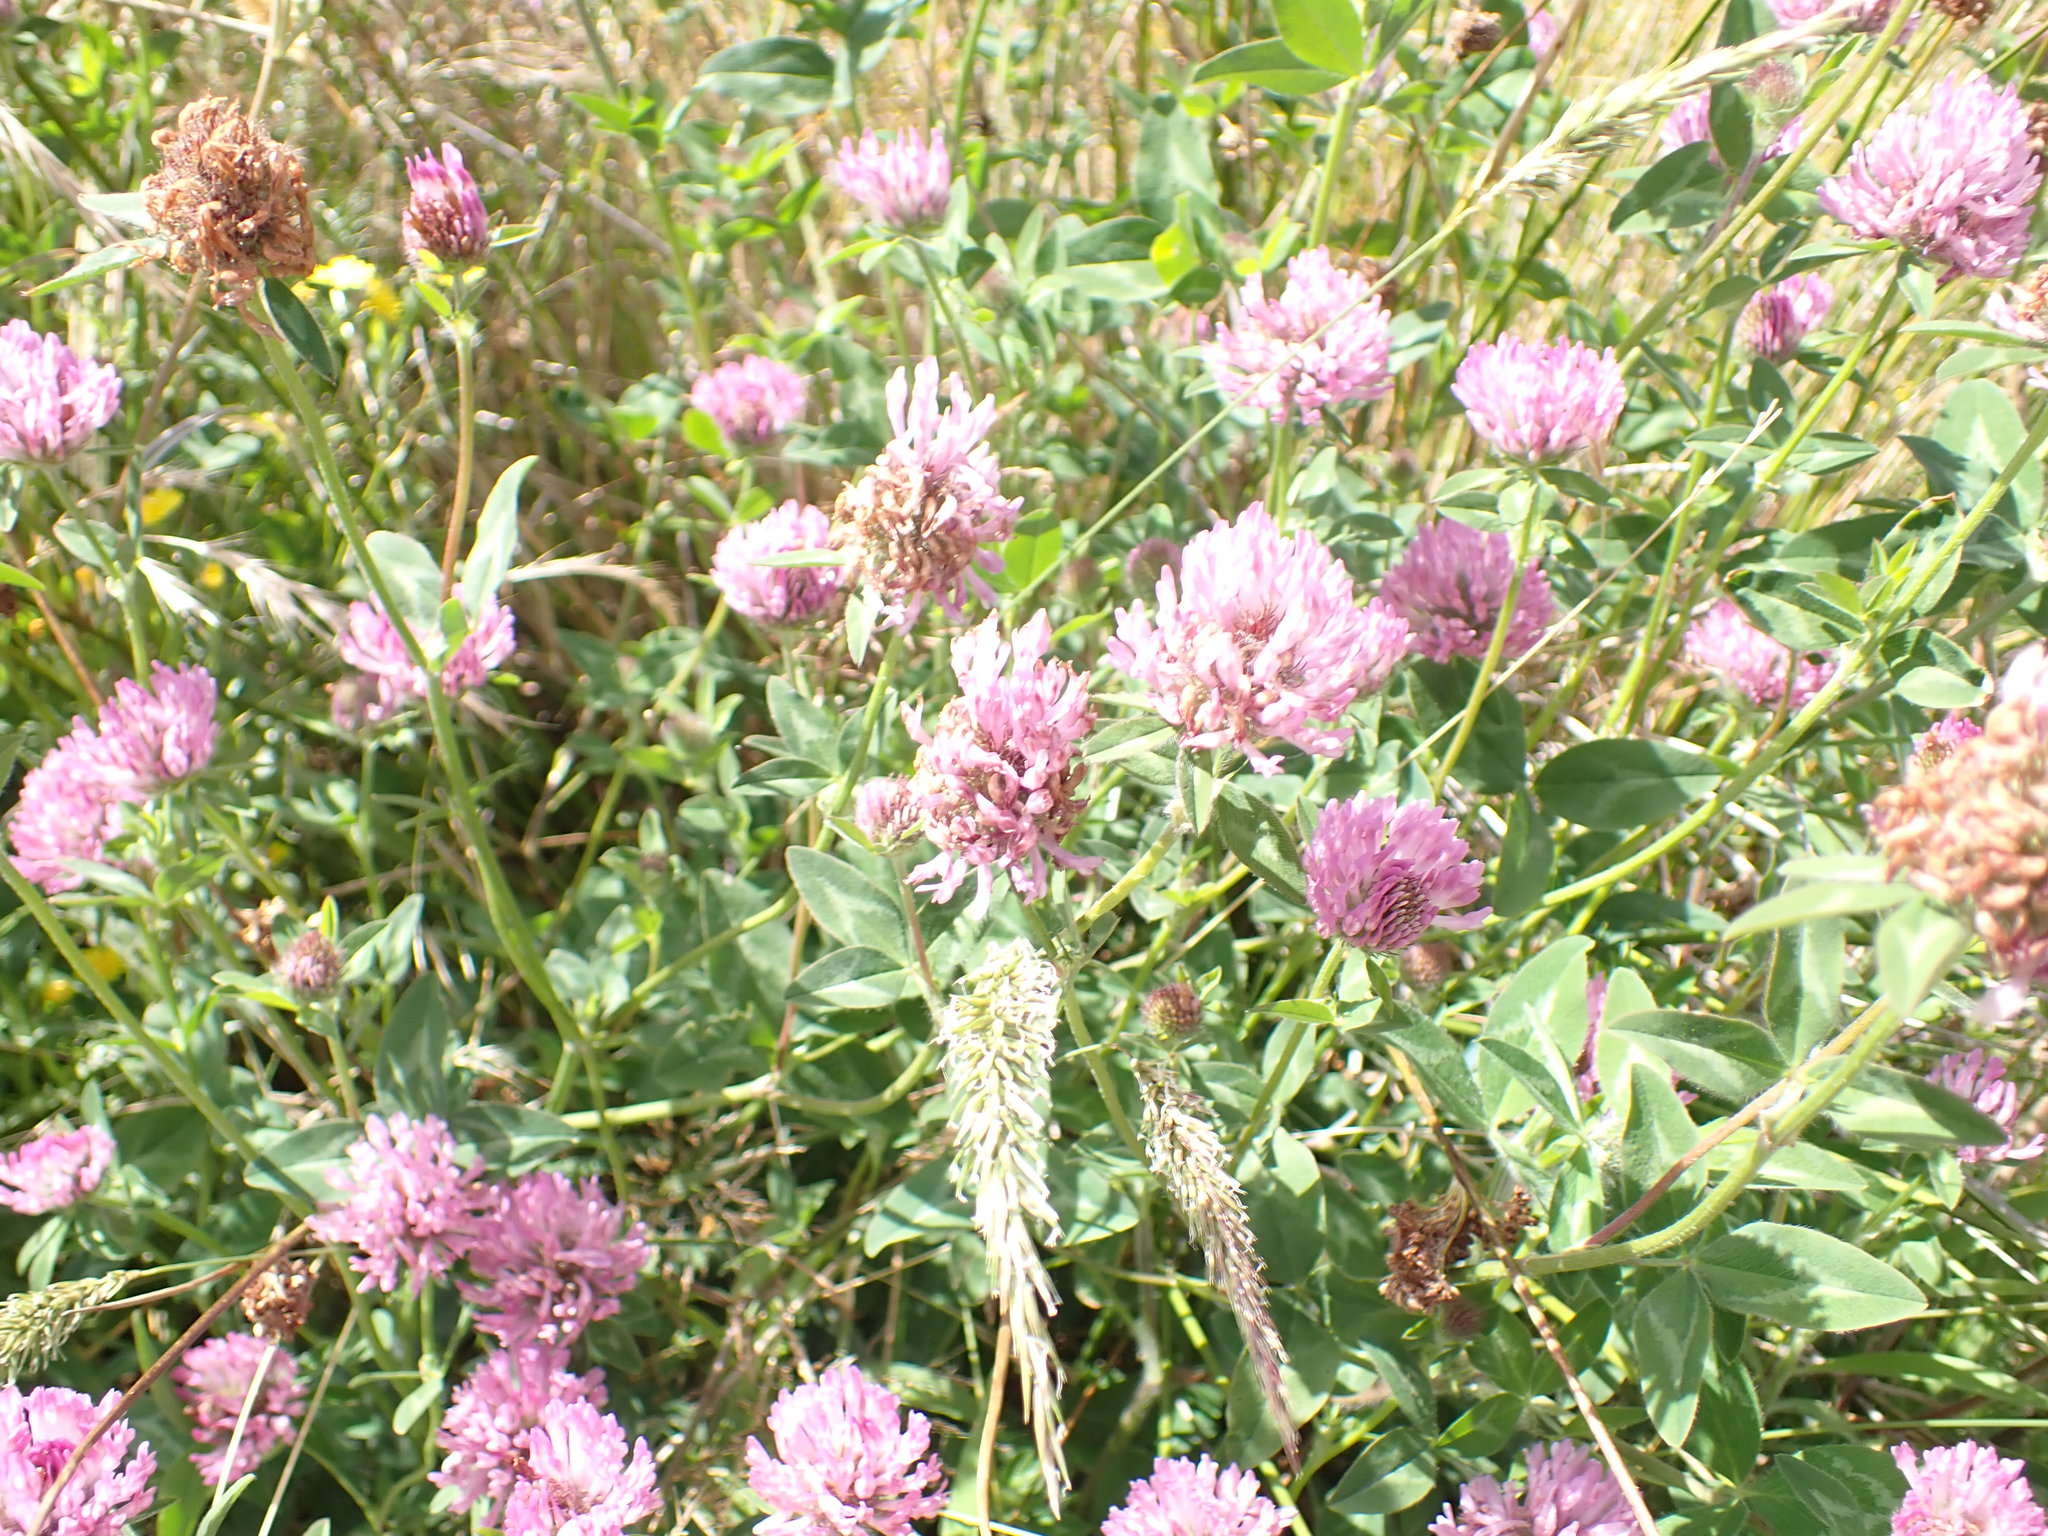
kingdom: Plantae
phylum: Tracheophyta
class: Magnoliopsida
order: Fabales
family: Fabaceae
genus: Trifolium
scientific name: Trifolium pratense
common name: Red clover
